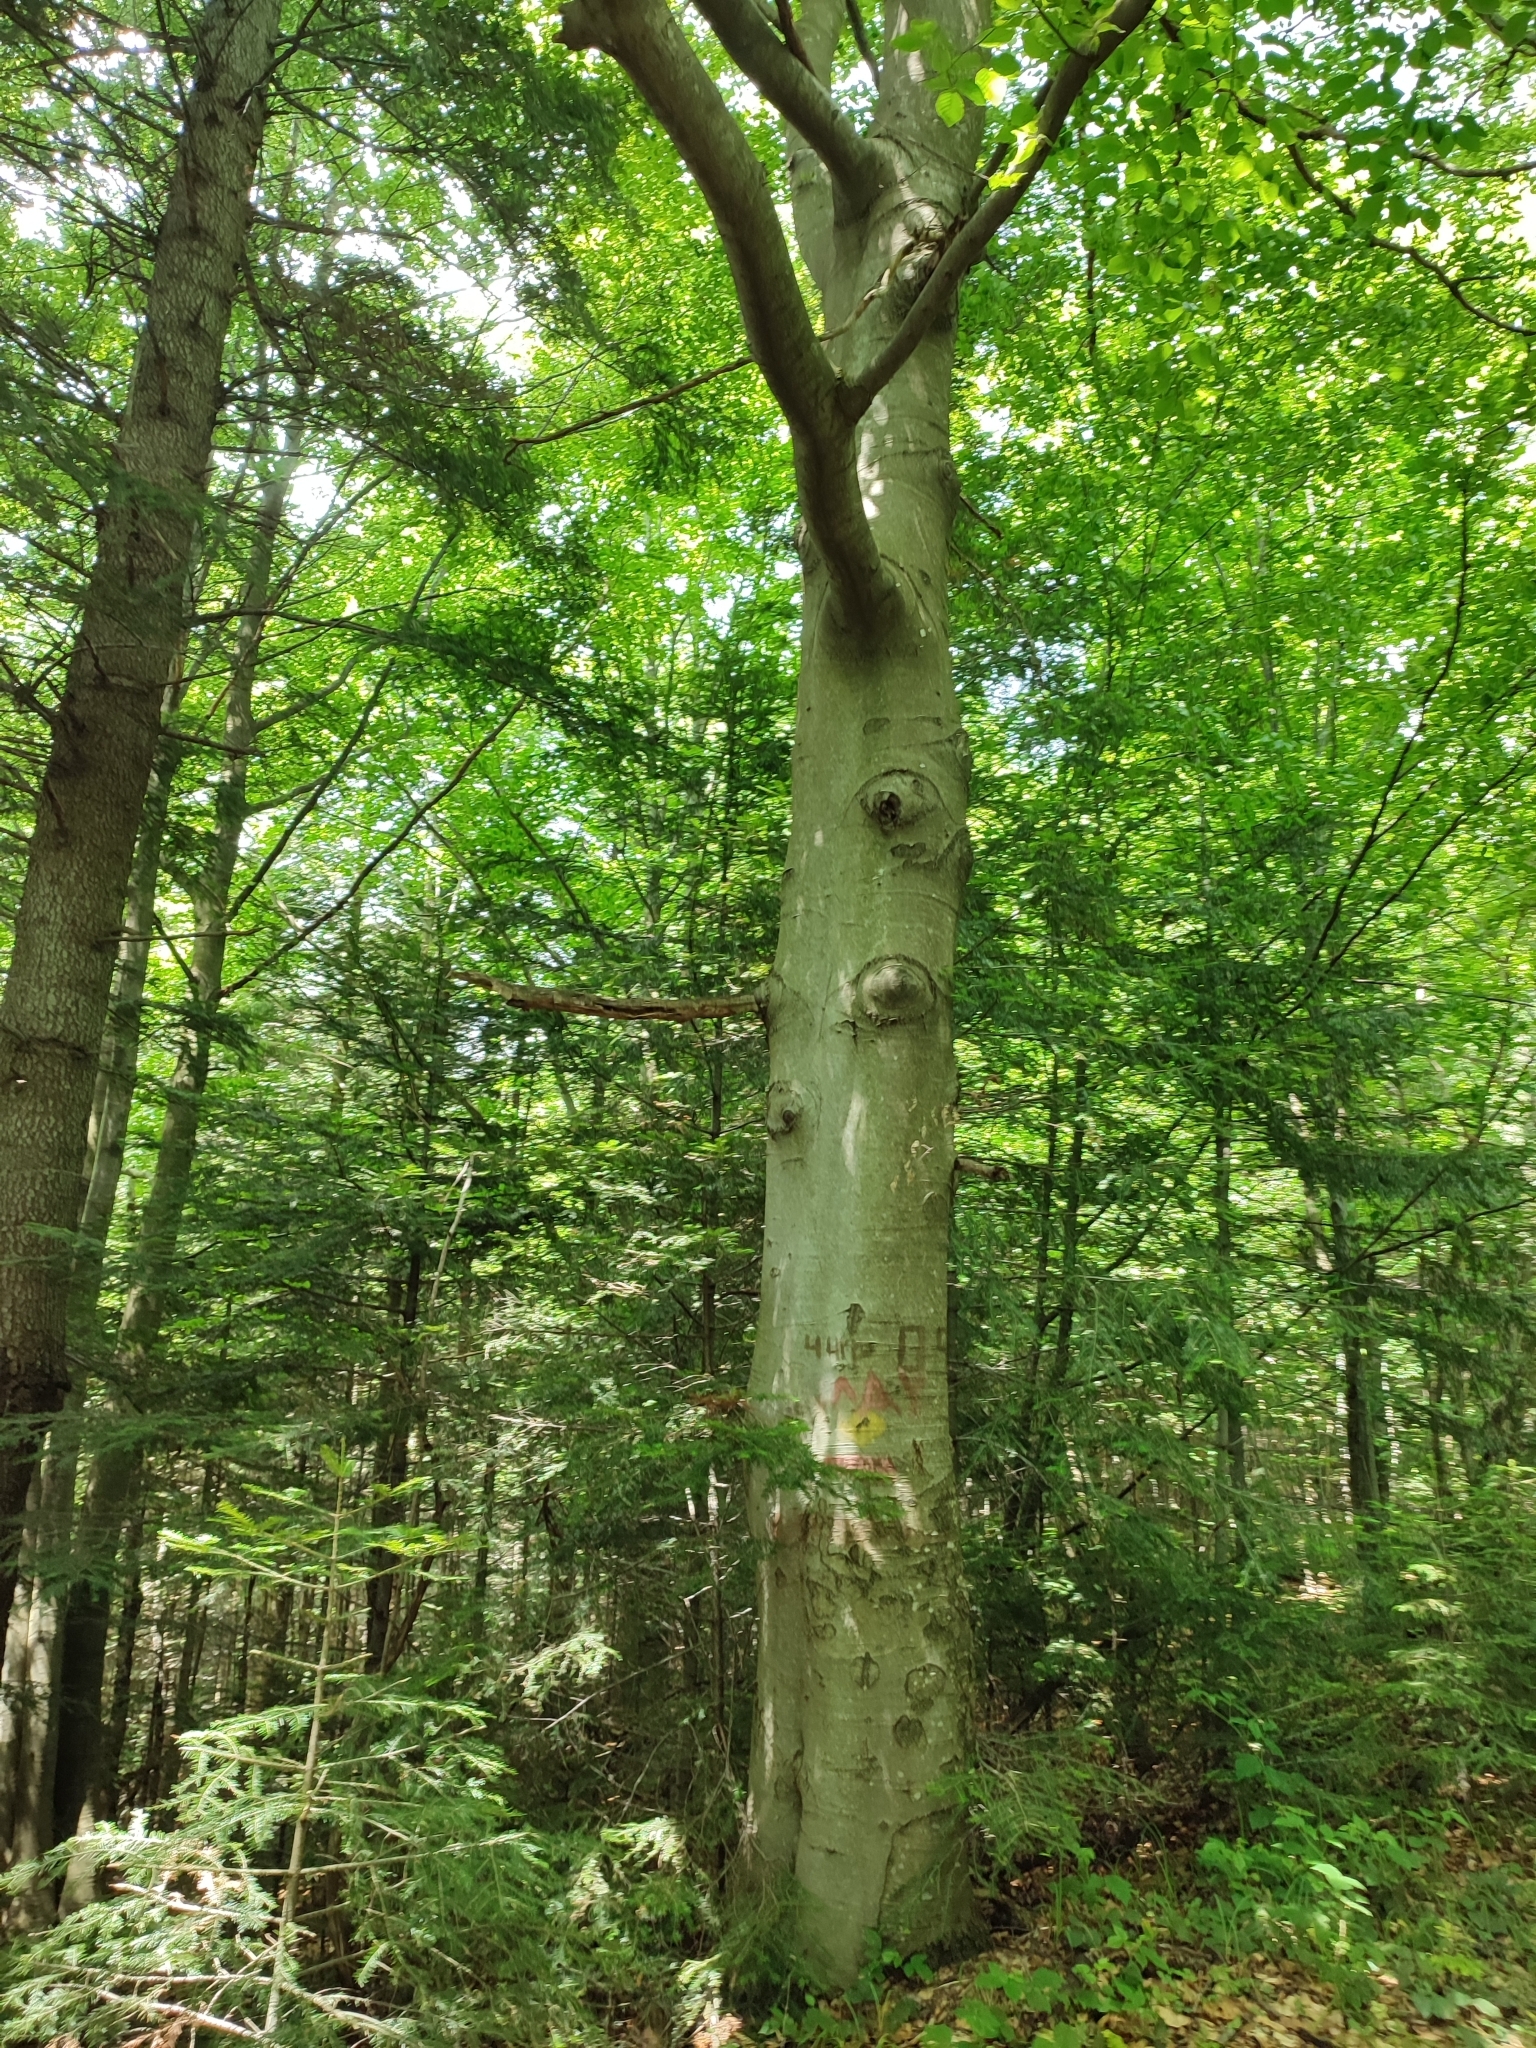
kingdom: Plantae
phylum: Tracheophyta
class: Magnoliopsida
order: Fagales
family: Fagaceae
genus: Fagus
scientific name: Fagus sylvatica
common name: Beech
